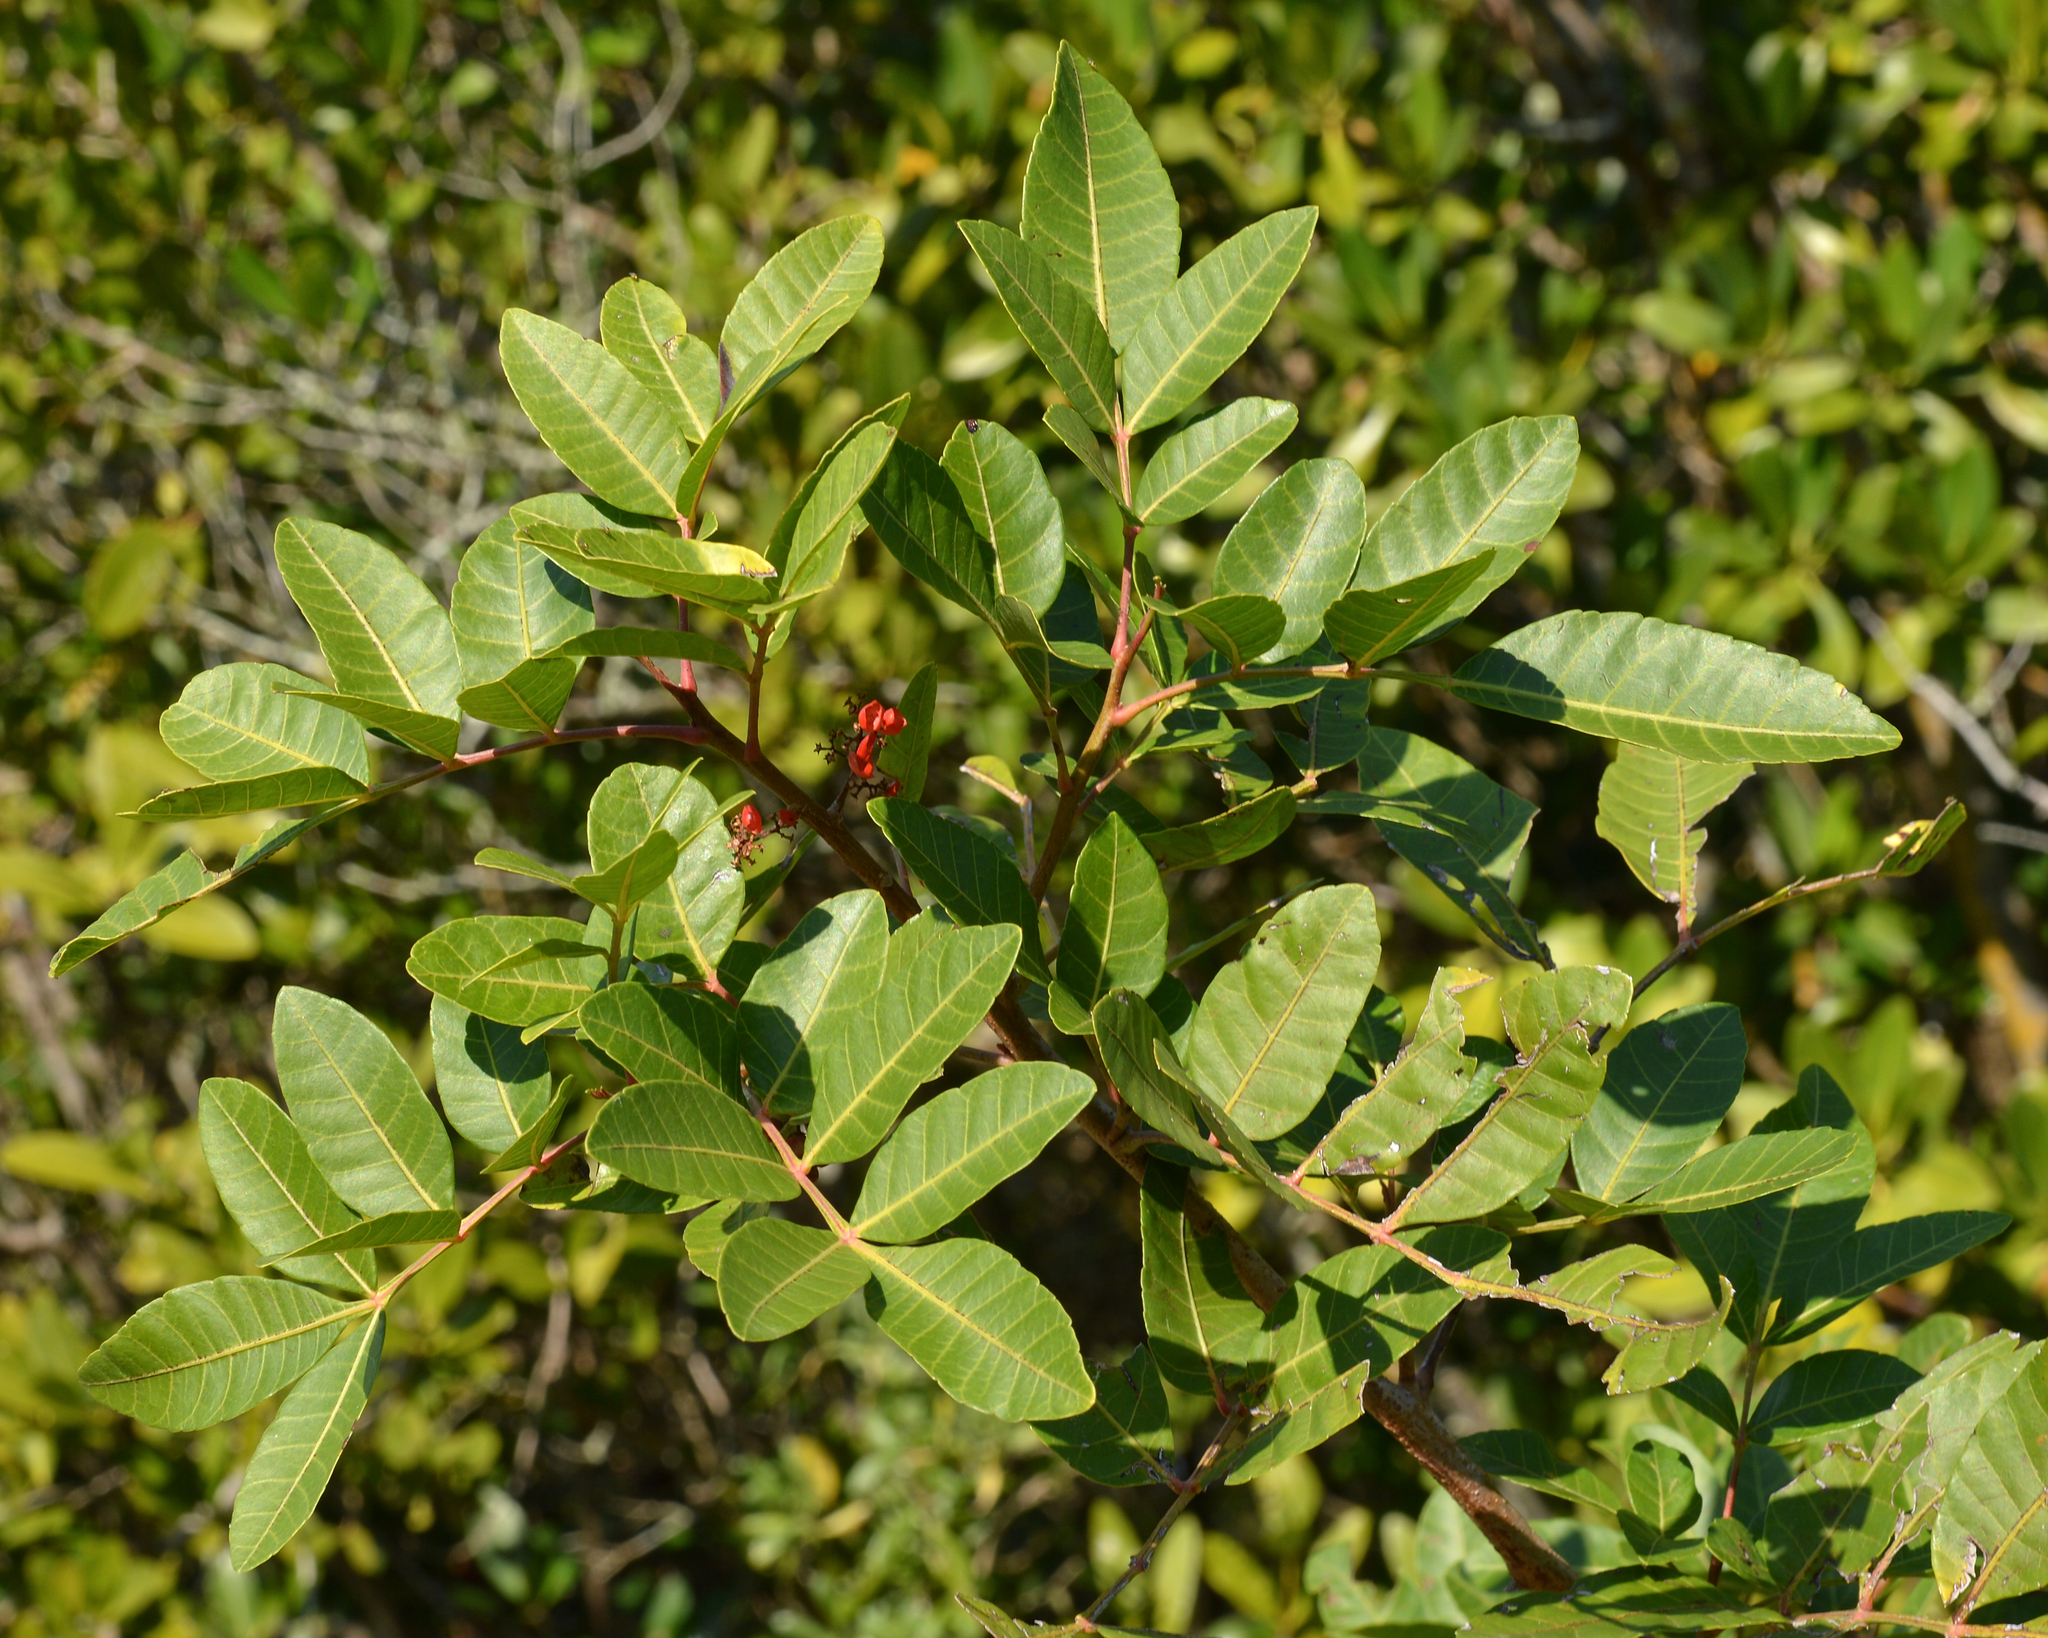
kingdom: Plantae
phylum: Tracheophyta
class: Magnoliopsida
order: Sapindales
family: Anacardiaceae
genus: Schinus
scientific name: Schinus terebinthifolia
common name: Brazilian peppertree
